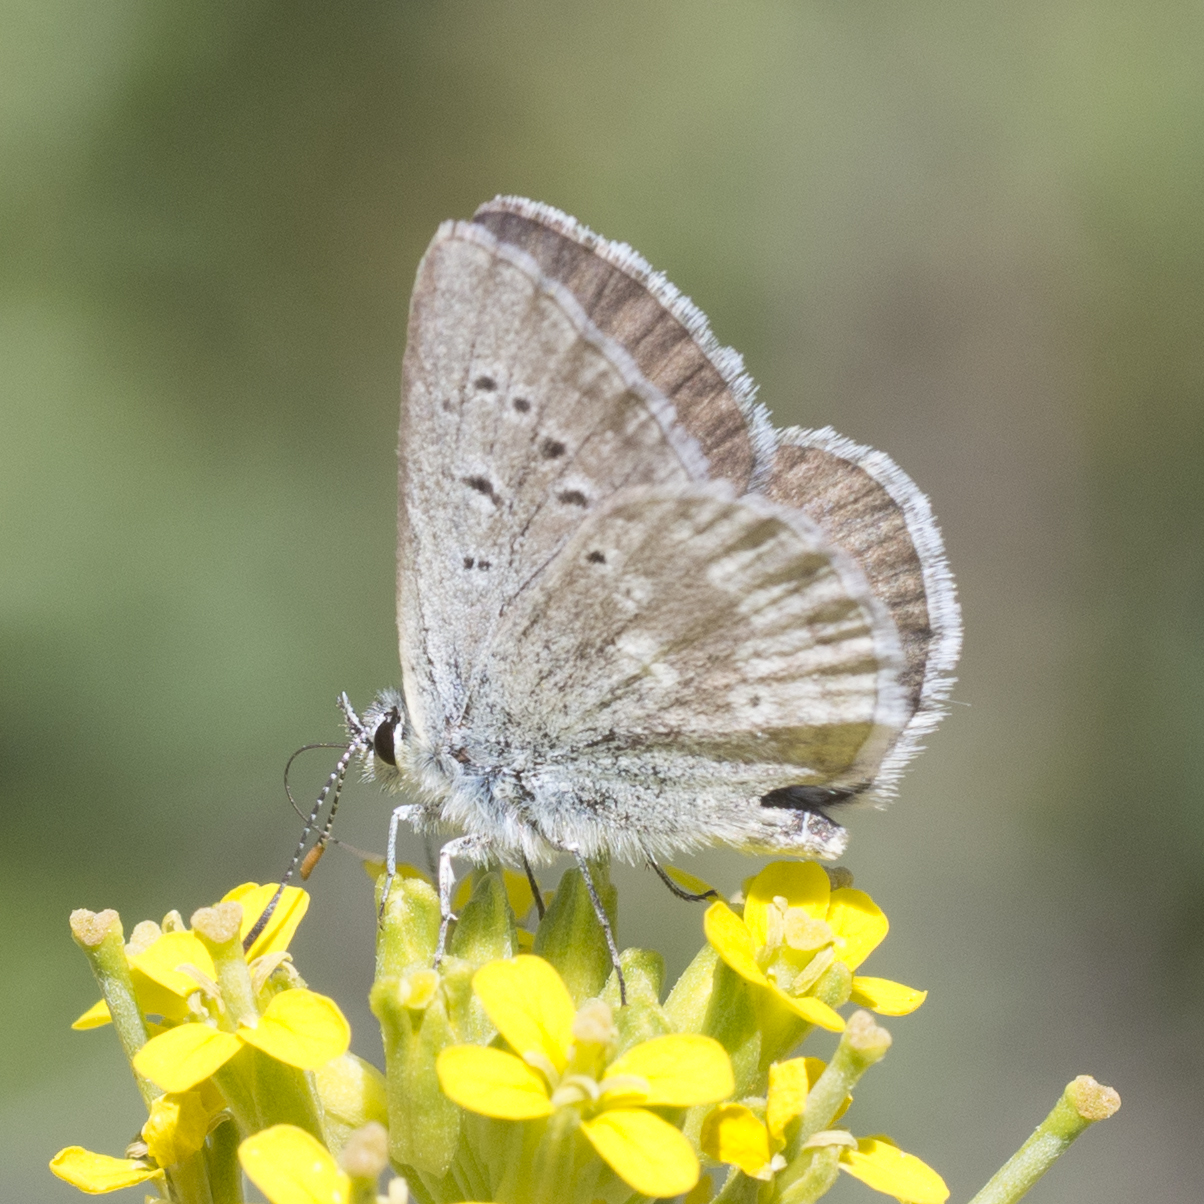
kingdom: Animalia
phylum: Arthropoda
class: Insecta
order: Lepidoptera
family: Lycaenidae
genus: Agriades
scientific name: Agriades glandon
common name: Glandon blue
